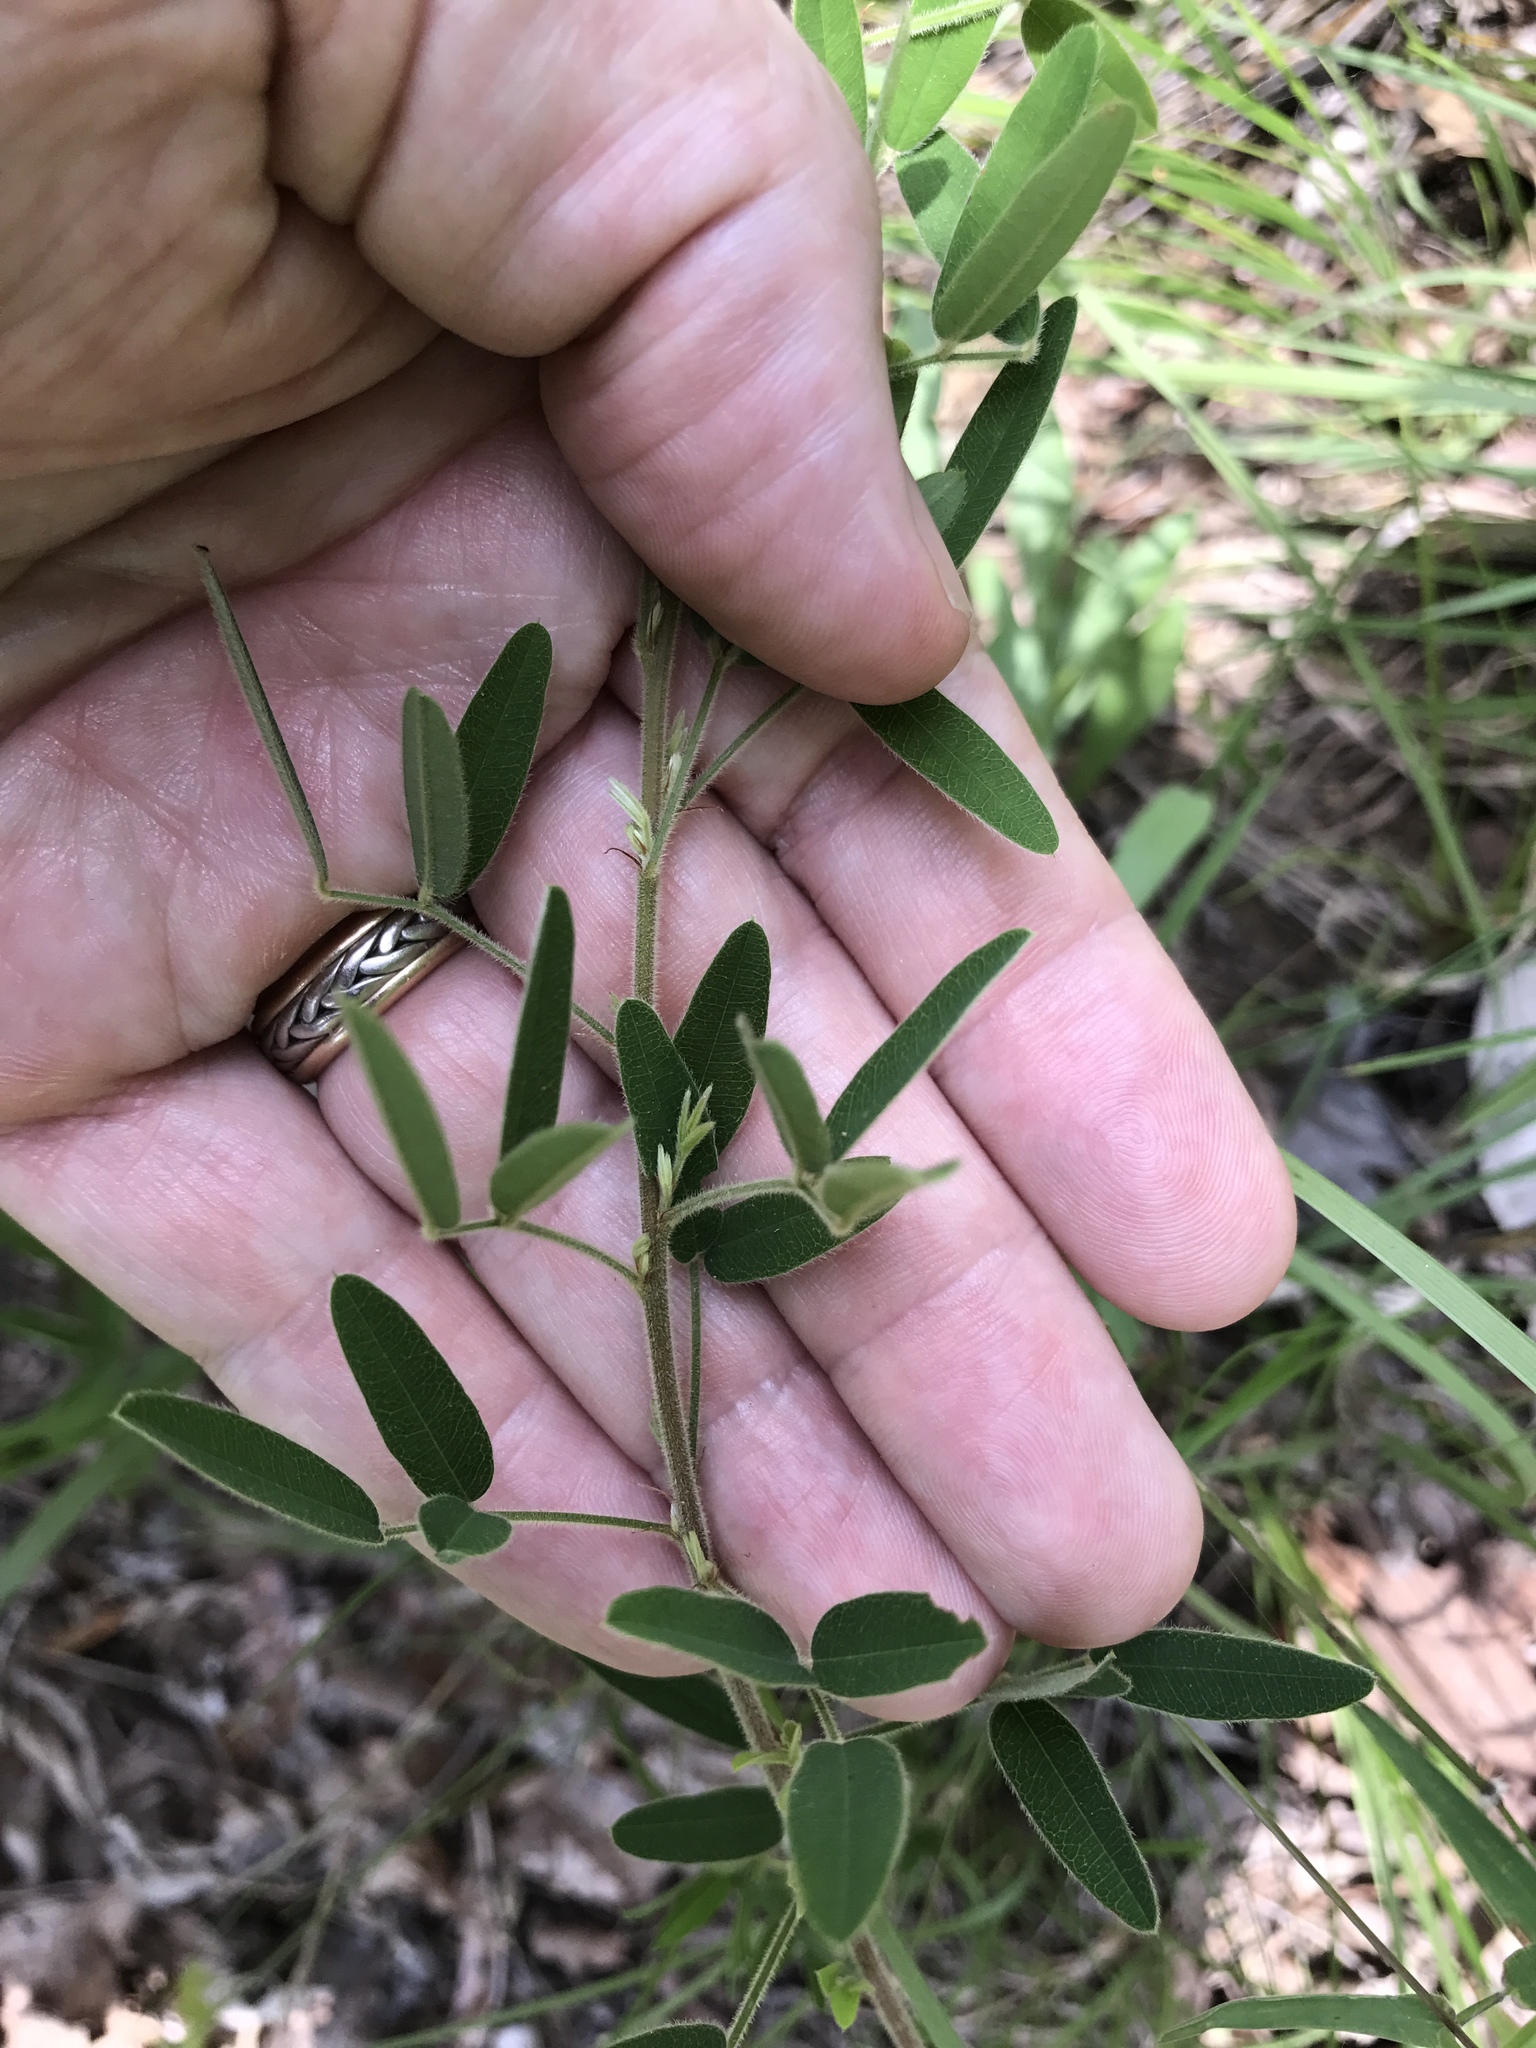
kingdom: Plantae
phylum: Tracheophyta
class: Magnoliopsida
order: Fabales
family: Fabaceae
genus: Lespedeza
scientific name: Lespedeza virginica
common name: Slender bush-clover
